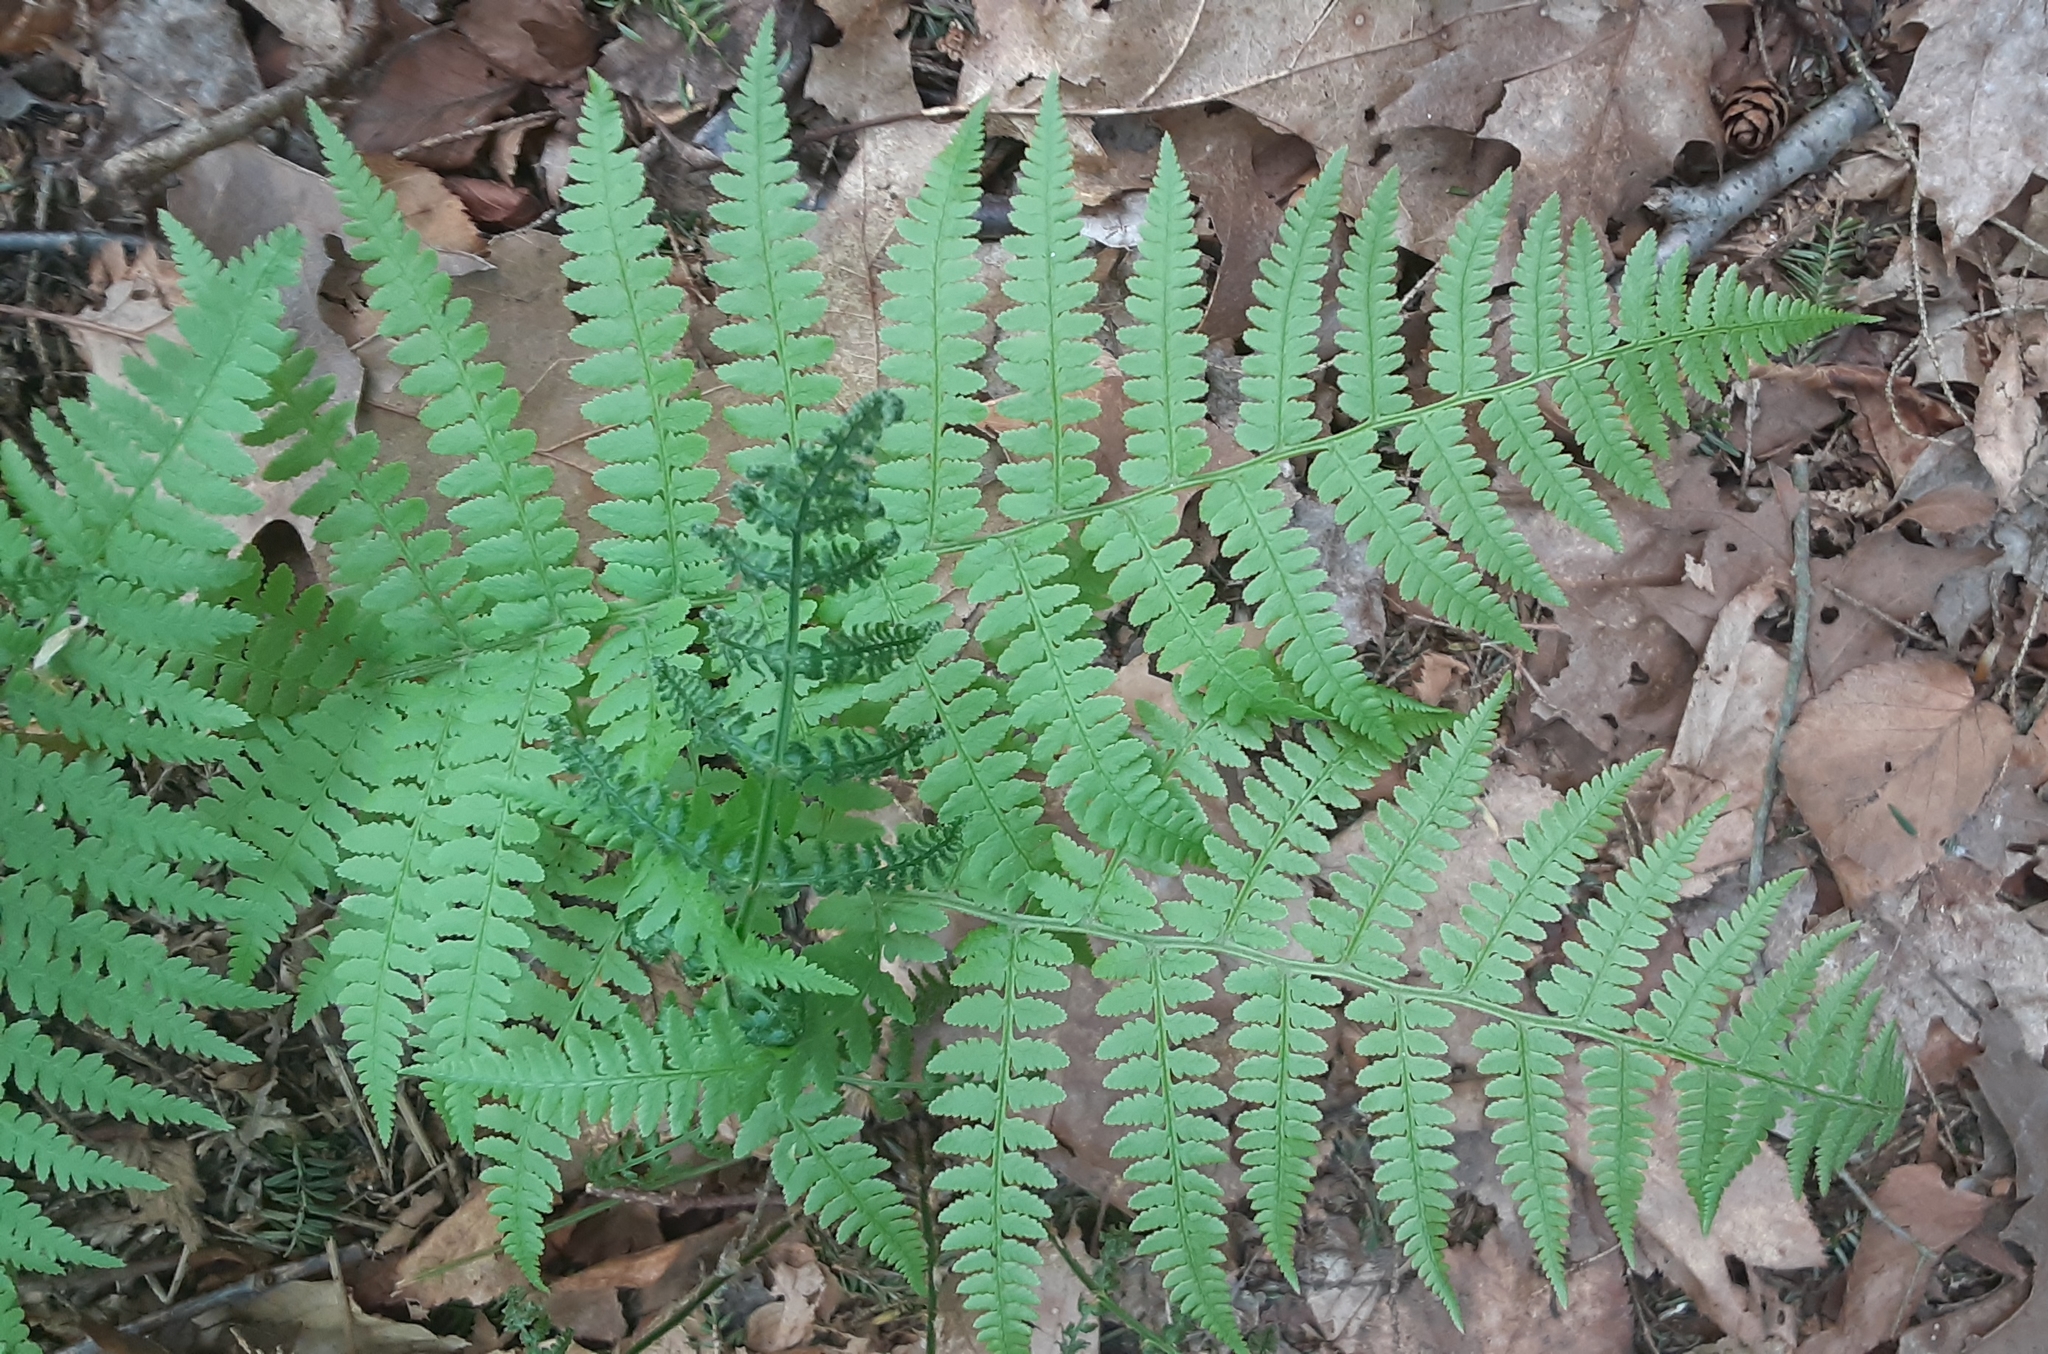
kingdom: Plantae
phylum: Tracheophyta
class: Polypodiopsida
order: Polypodiales
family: Dryopteridaceae
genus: Dryopteris
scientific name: Dryopteris marginalis
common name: Marginal wood fern
